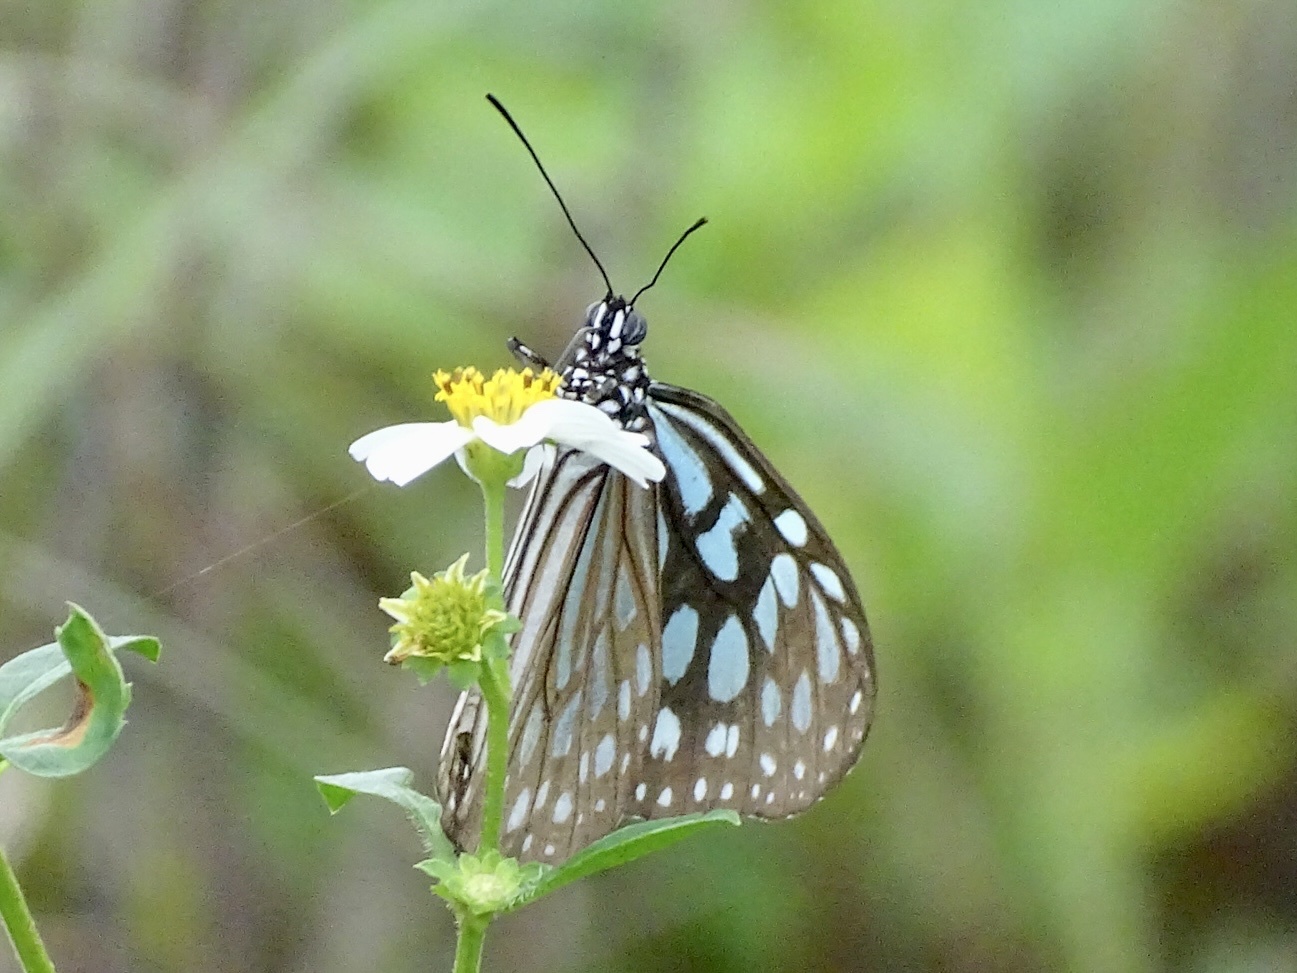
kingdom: Animalia
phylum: Arthropoda
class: Insecta
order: Lepidoptera
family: Nymphalidae
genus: Ideopsis
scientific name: Ideopsis similis
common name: Ceylon blue glassy tiger
